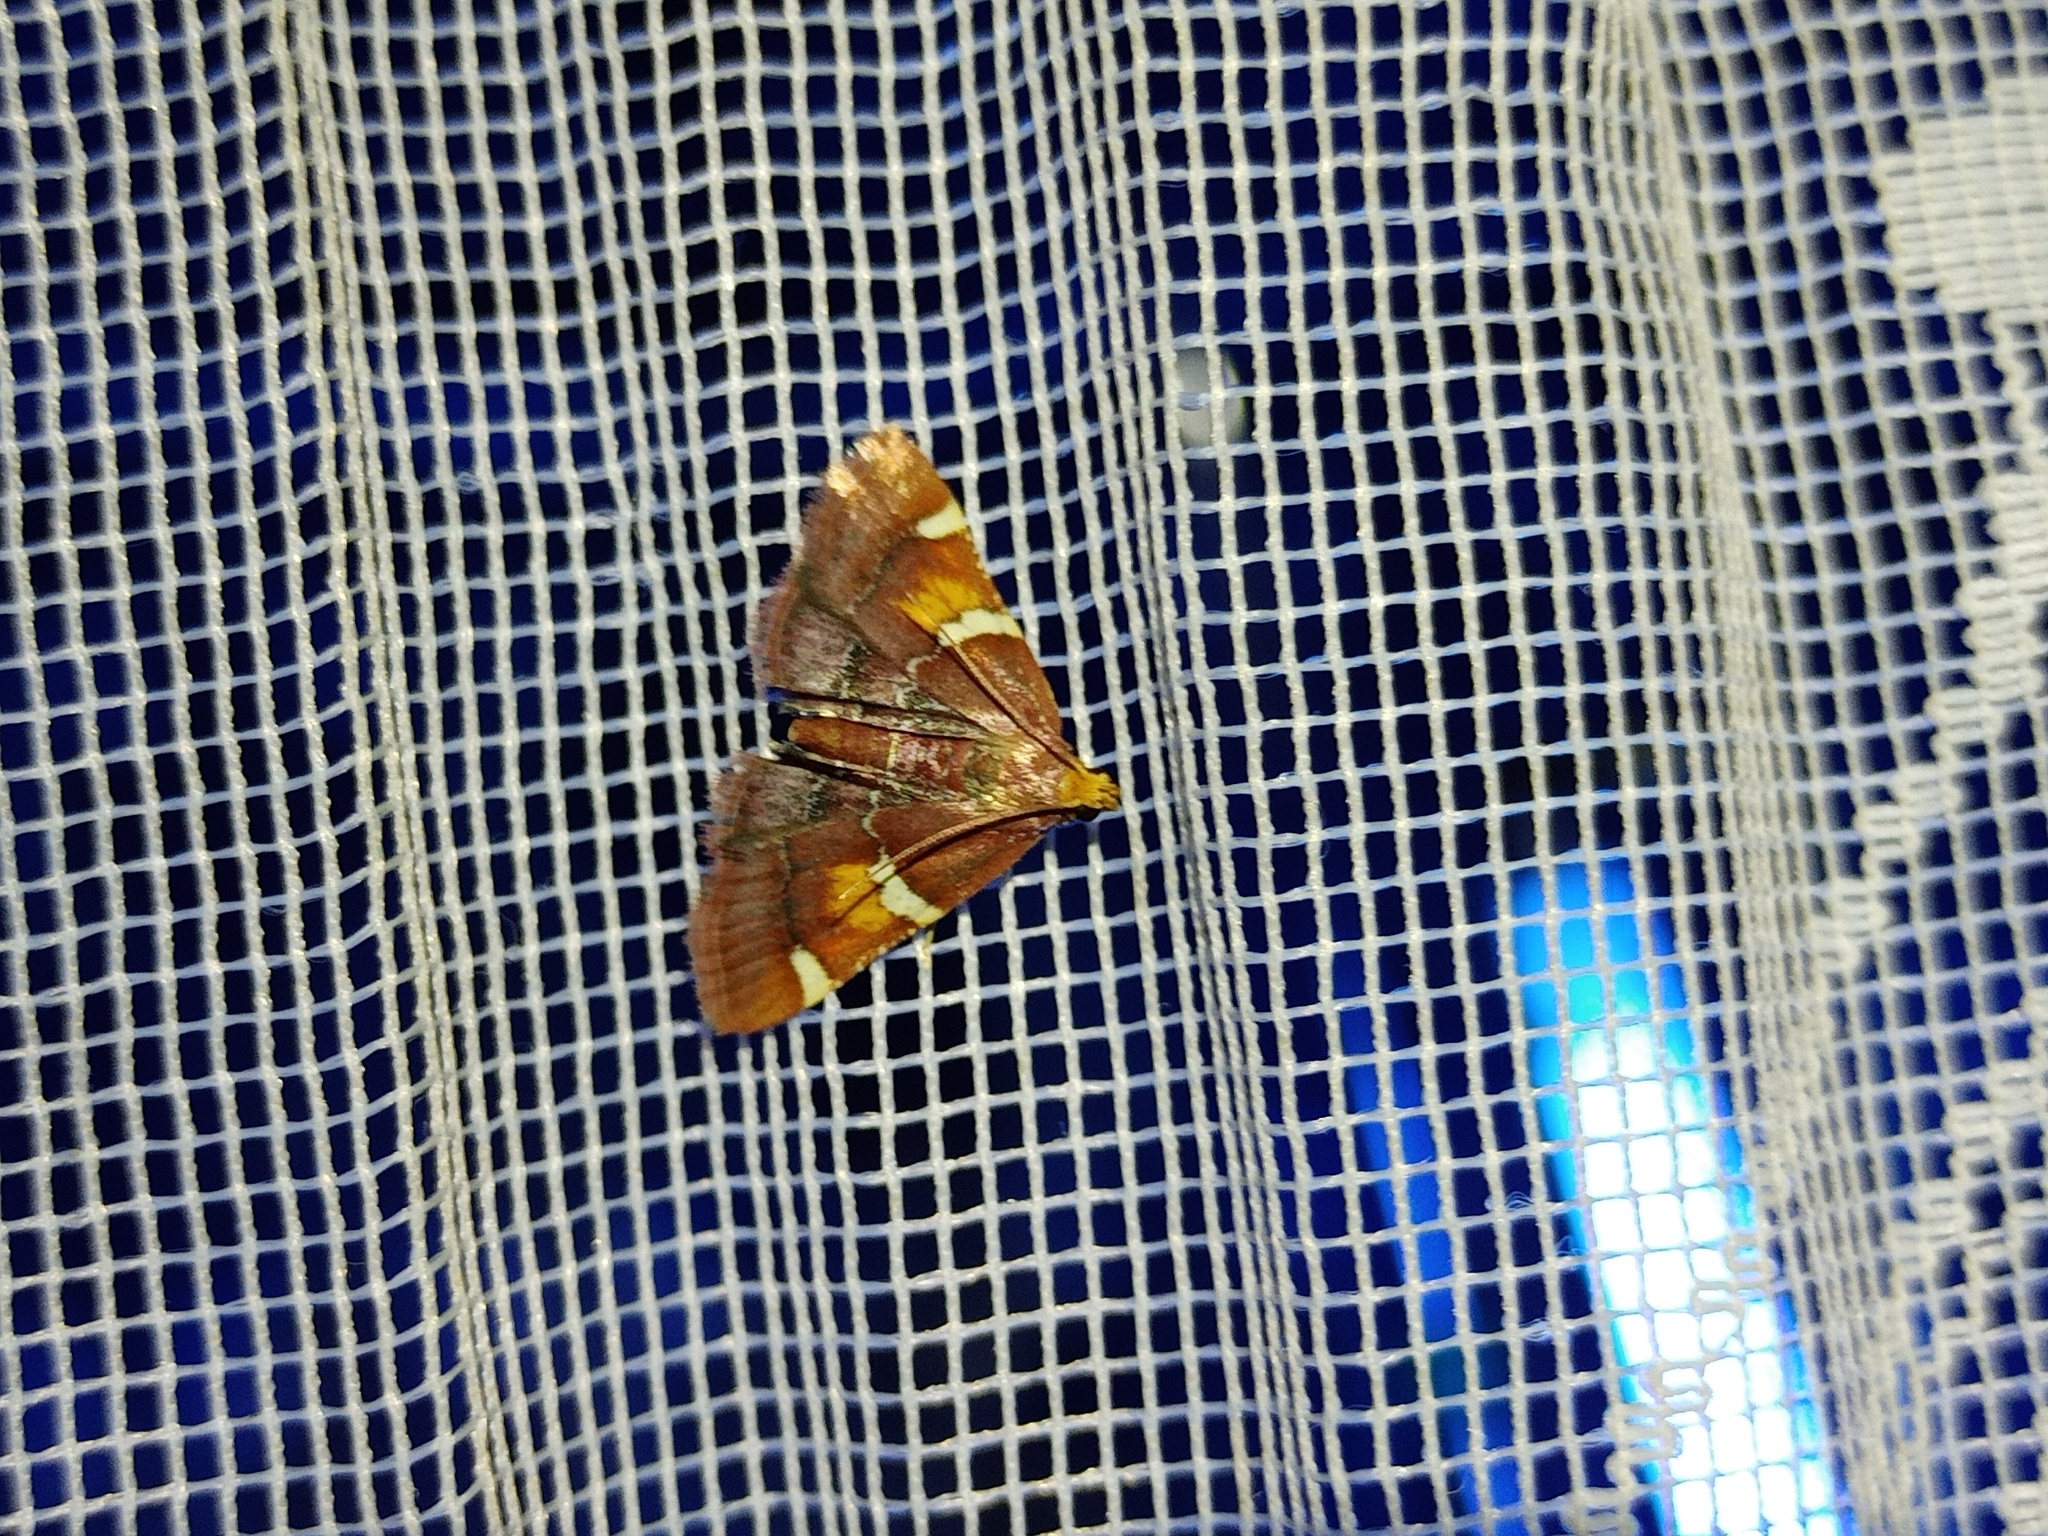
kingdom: Animalia
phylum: Arthropoda
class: Insecta
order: Lepidoptera
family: Pyralidae
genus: Pyralis
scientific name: Pyralis regalis
